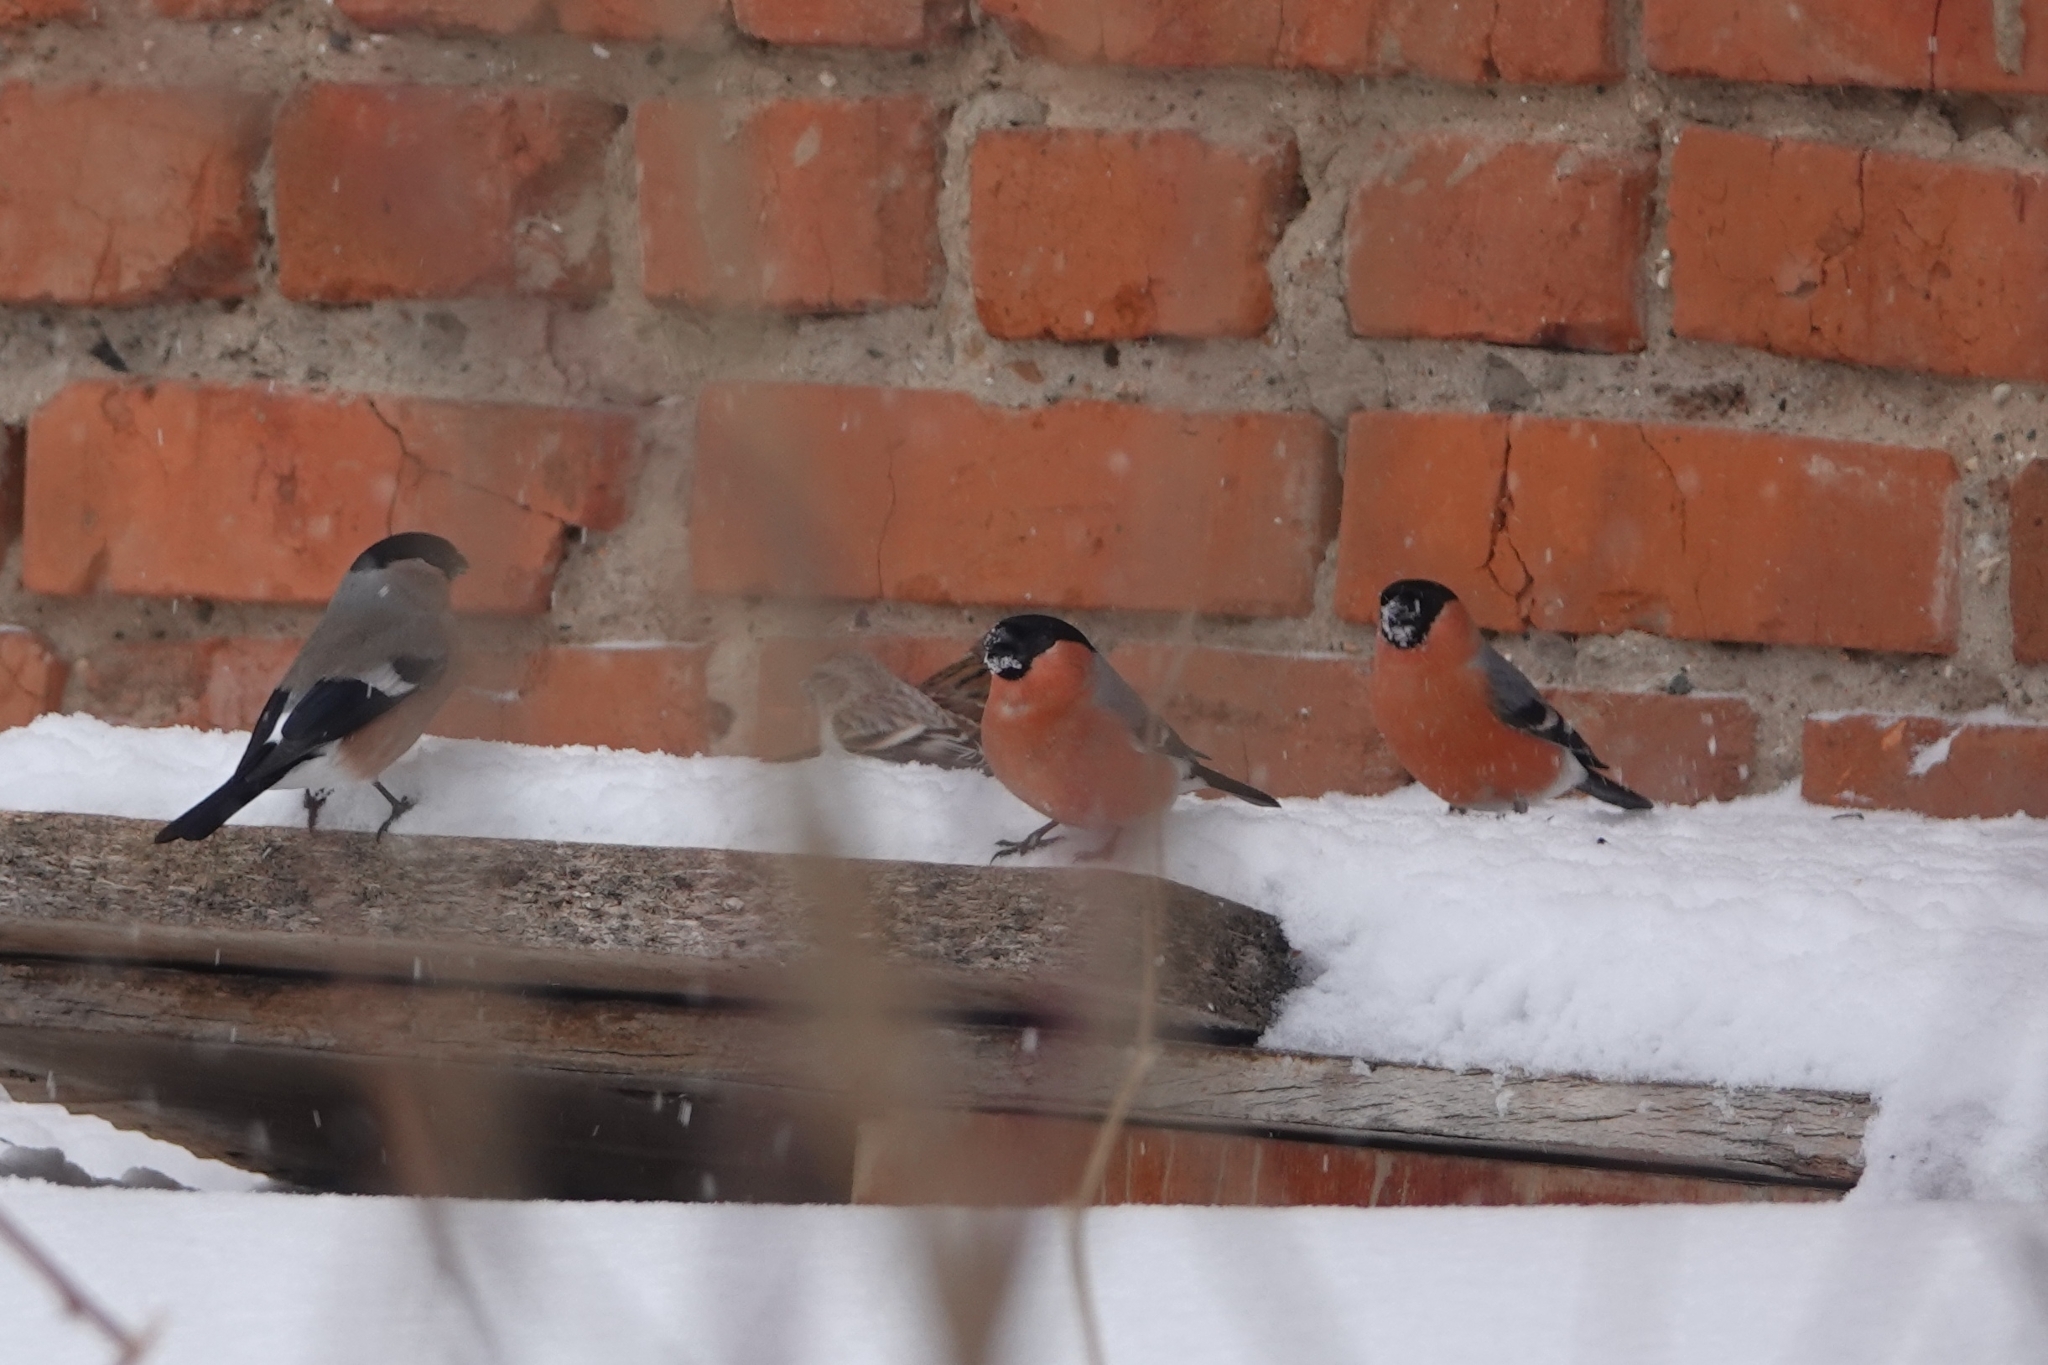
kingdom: Animalia
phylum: Chordata
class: Aves
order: Passeriformes
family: Fringillidae
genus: Pyrrhula
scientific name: Pyrrhula pyrrhula
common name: Eurasian bullfinch
